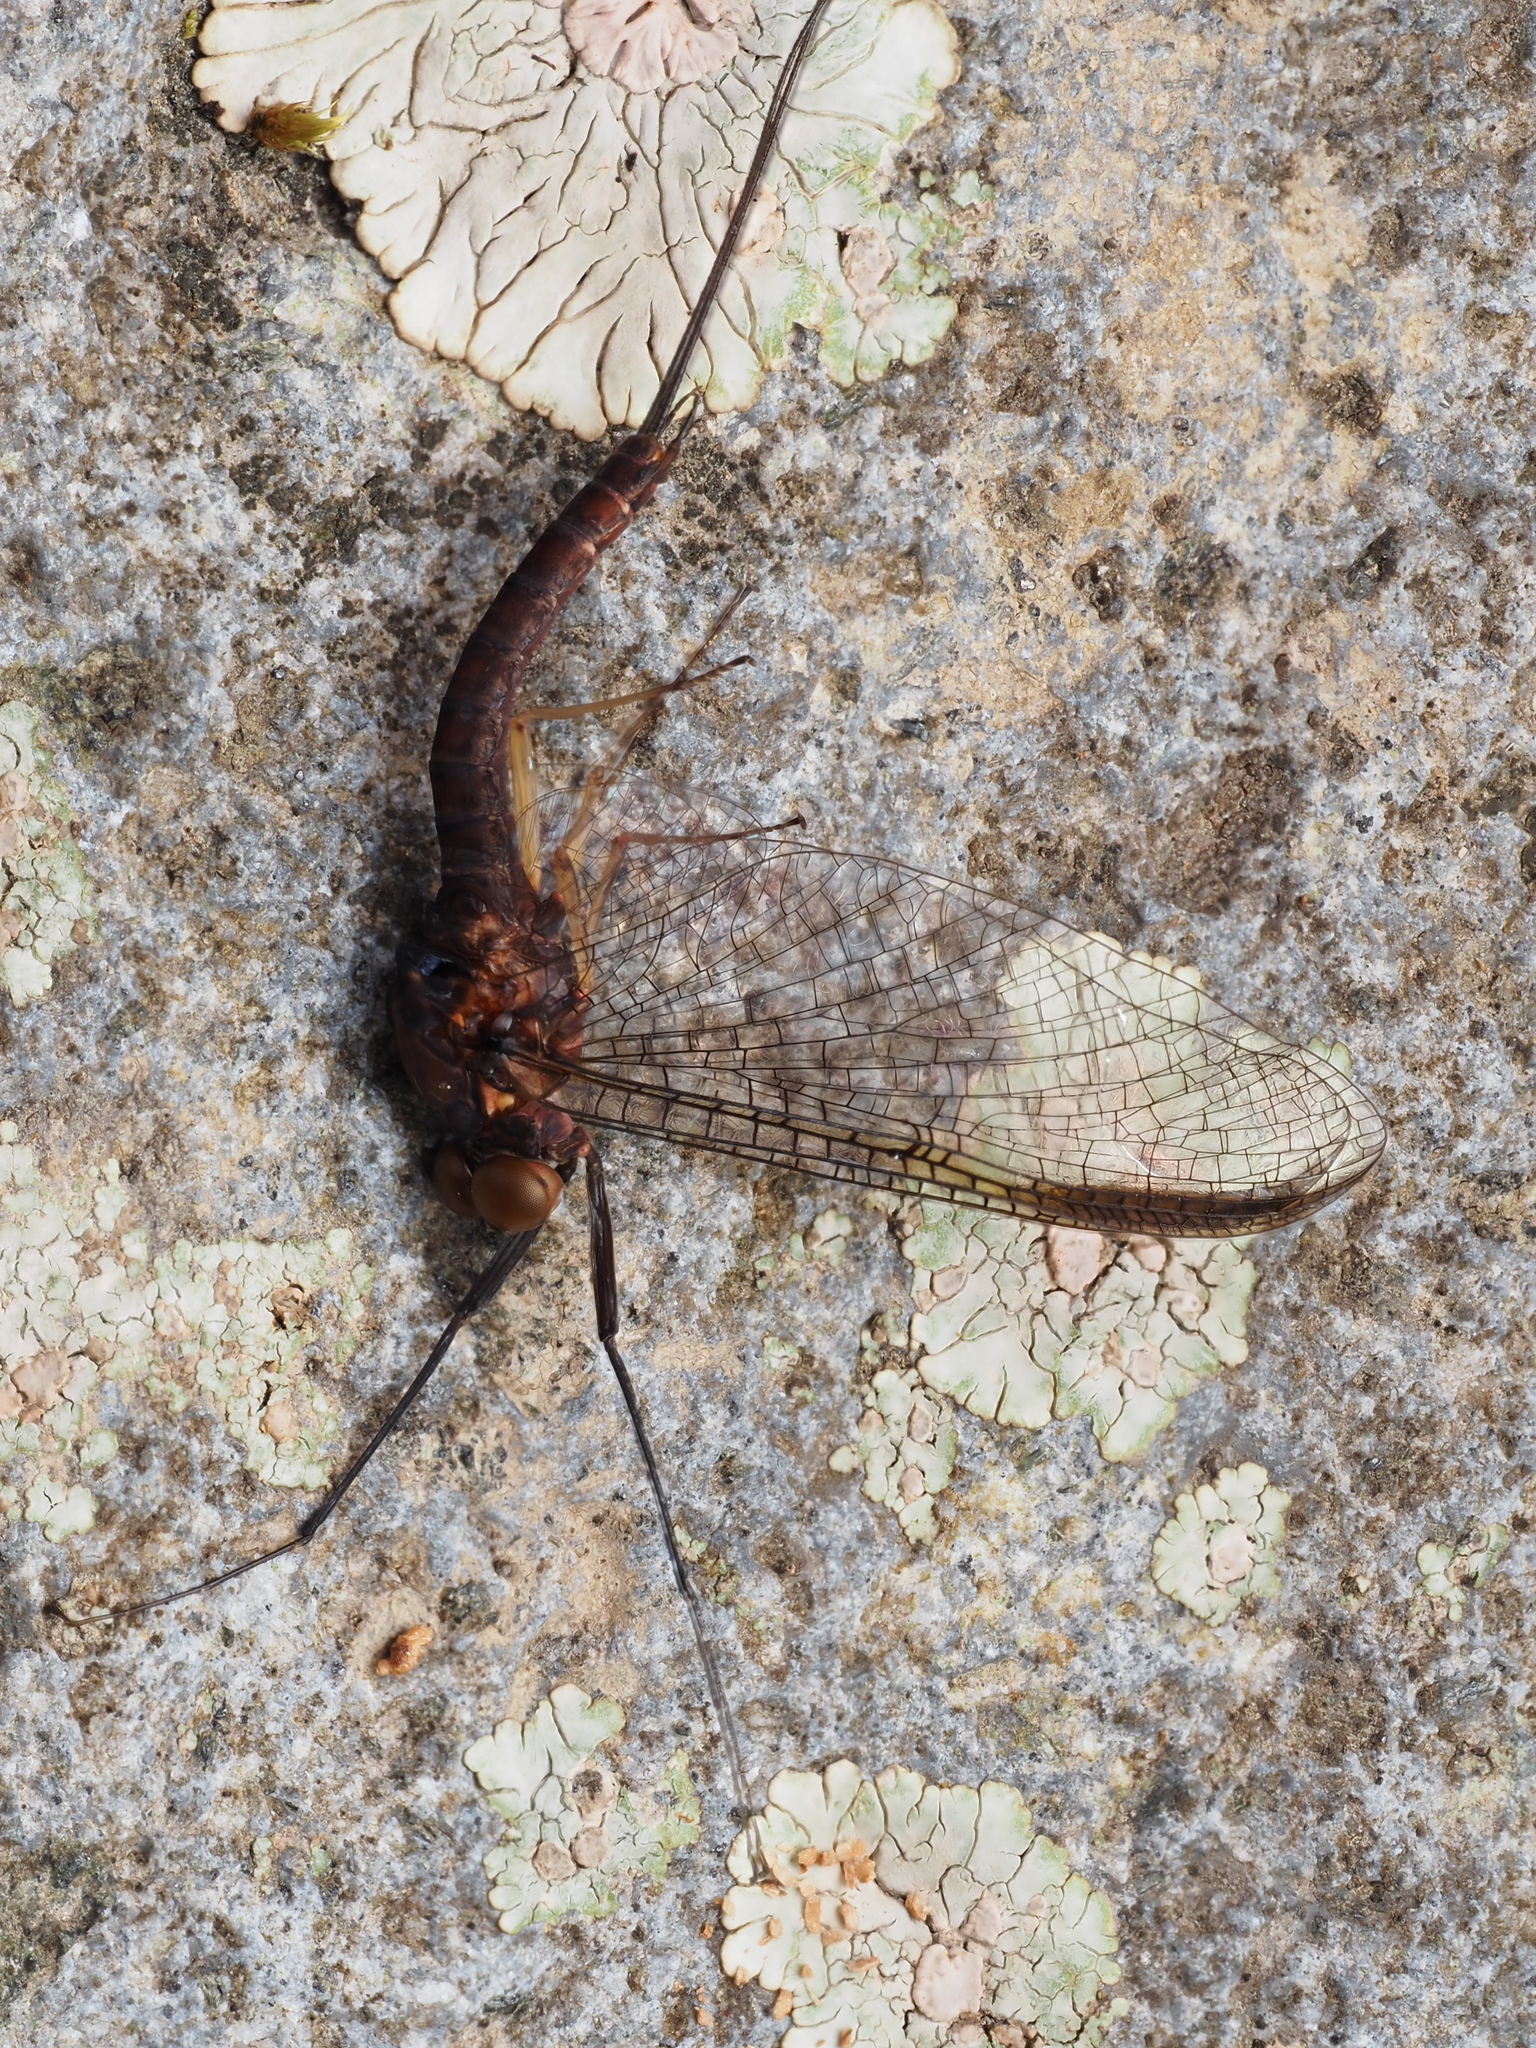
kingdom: Animalia
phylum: Arthropoda
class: Insecta
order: Ephemeroptera
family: Coloburiscidae
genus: Coloburiscus
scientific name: Coloburiscus humeralis
